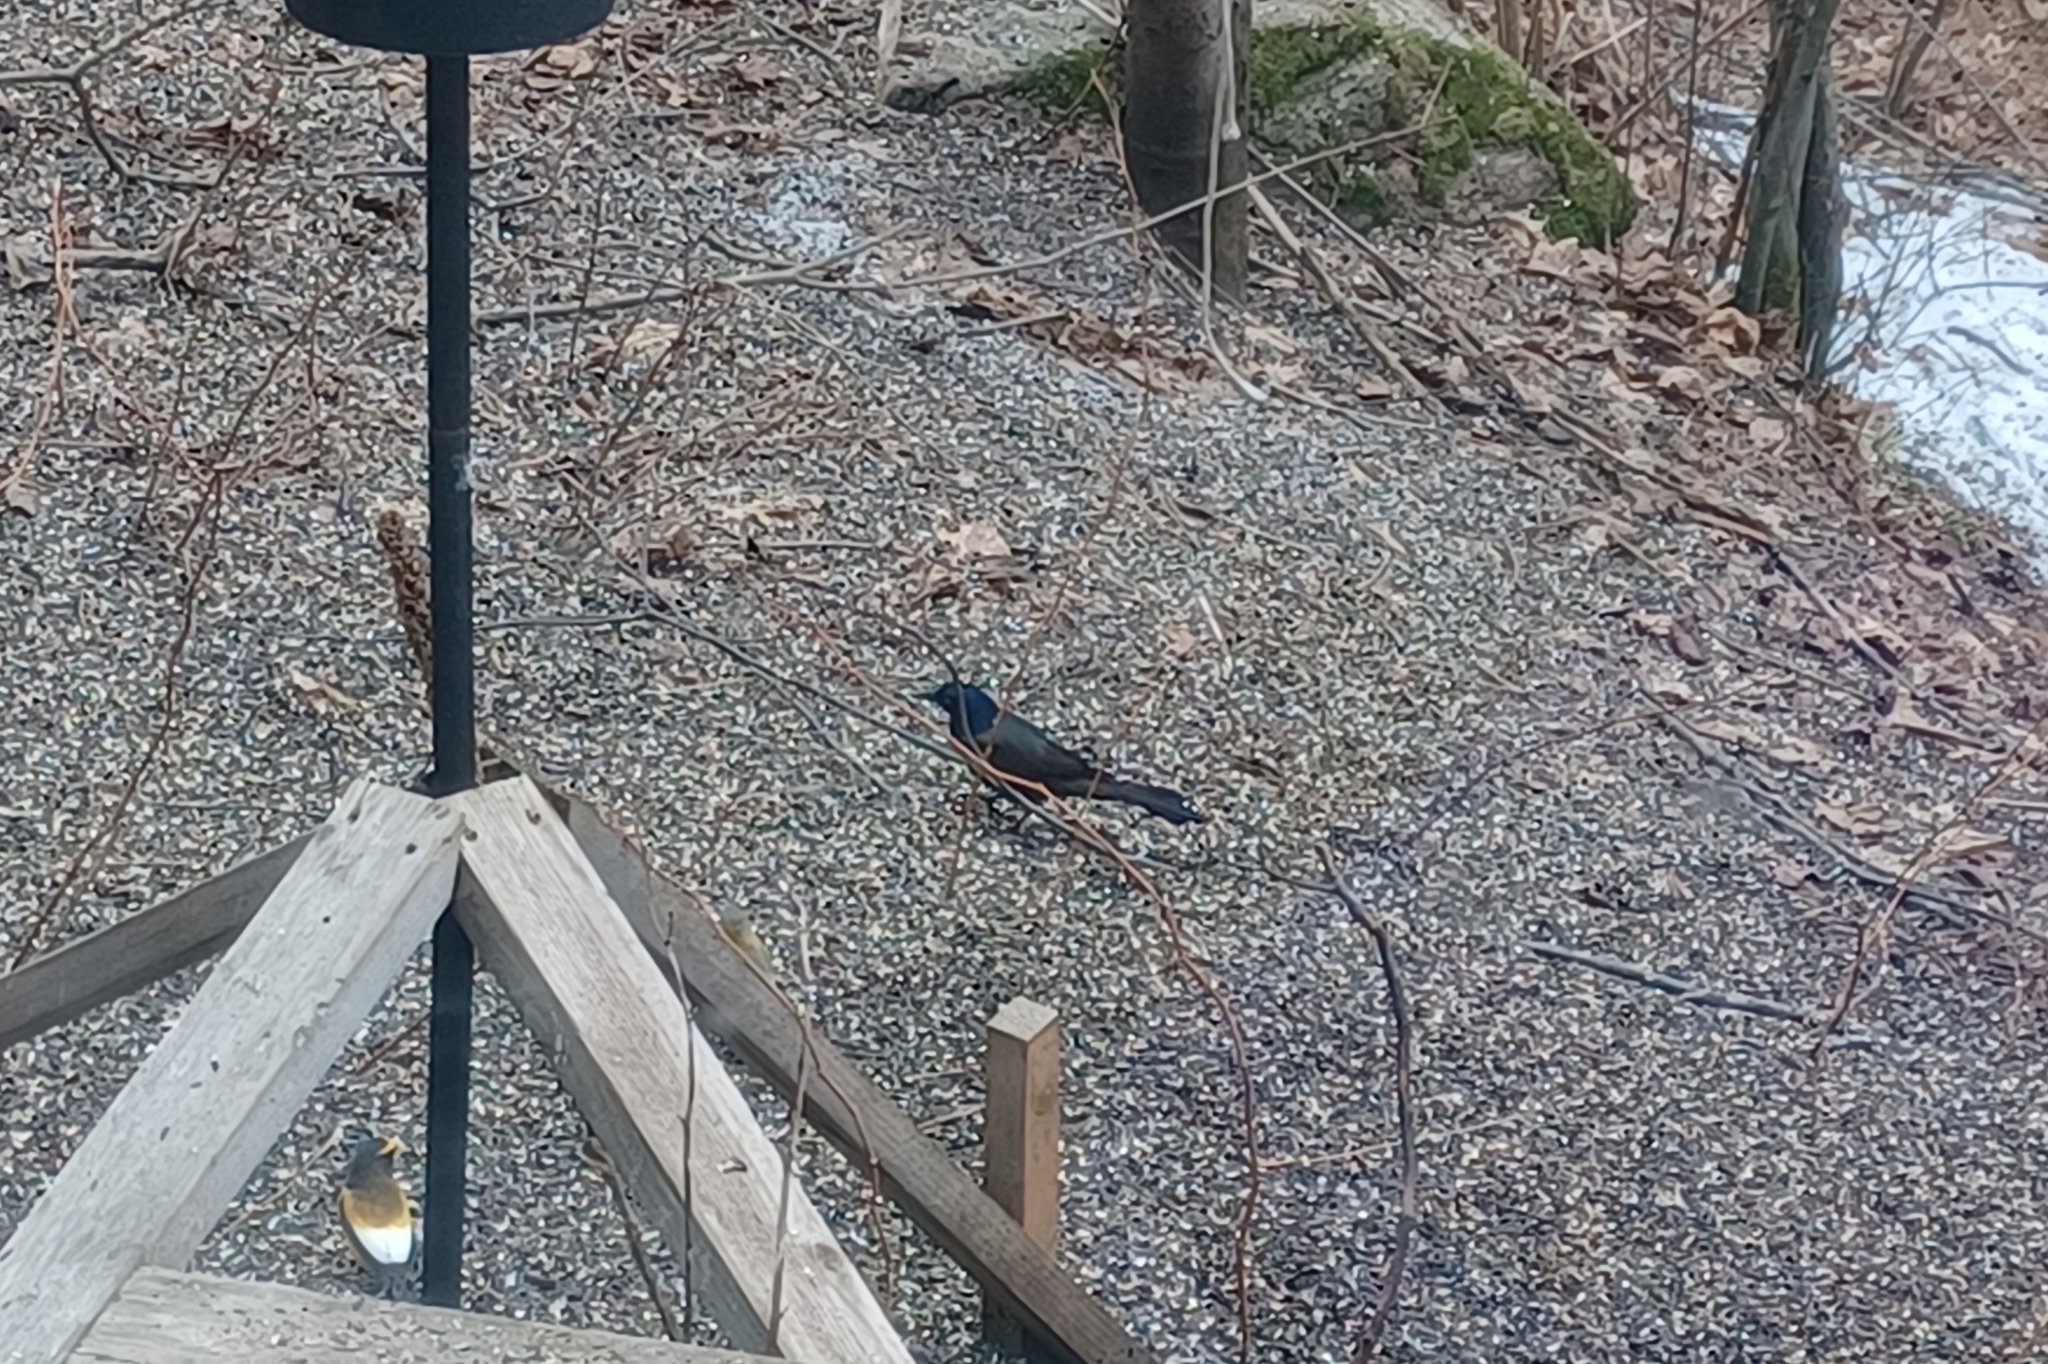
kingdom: Animalia
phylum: Chordata
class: Aves
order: Passeriformes
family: Icteridae
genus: Quiscalus
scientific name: Quiscalus quiscula
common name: Common grackle
